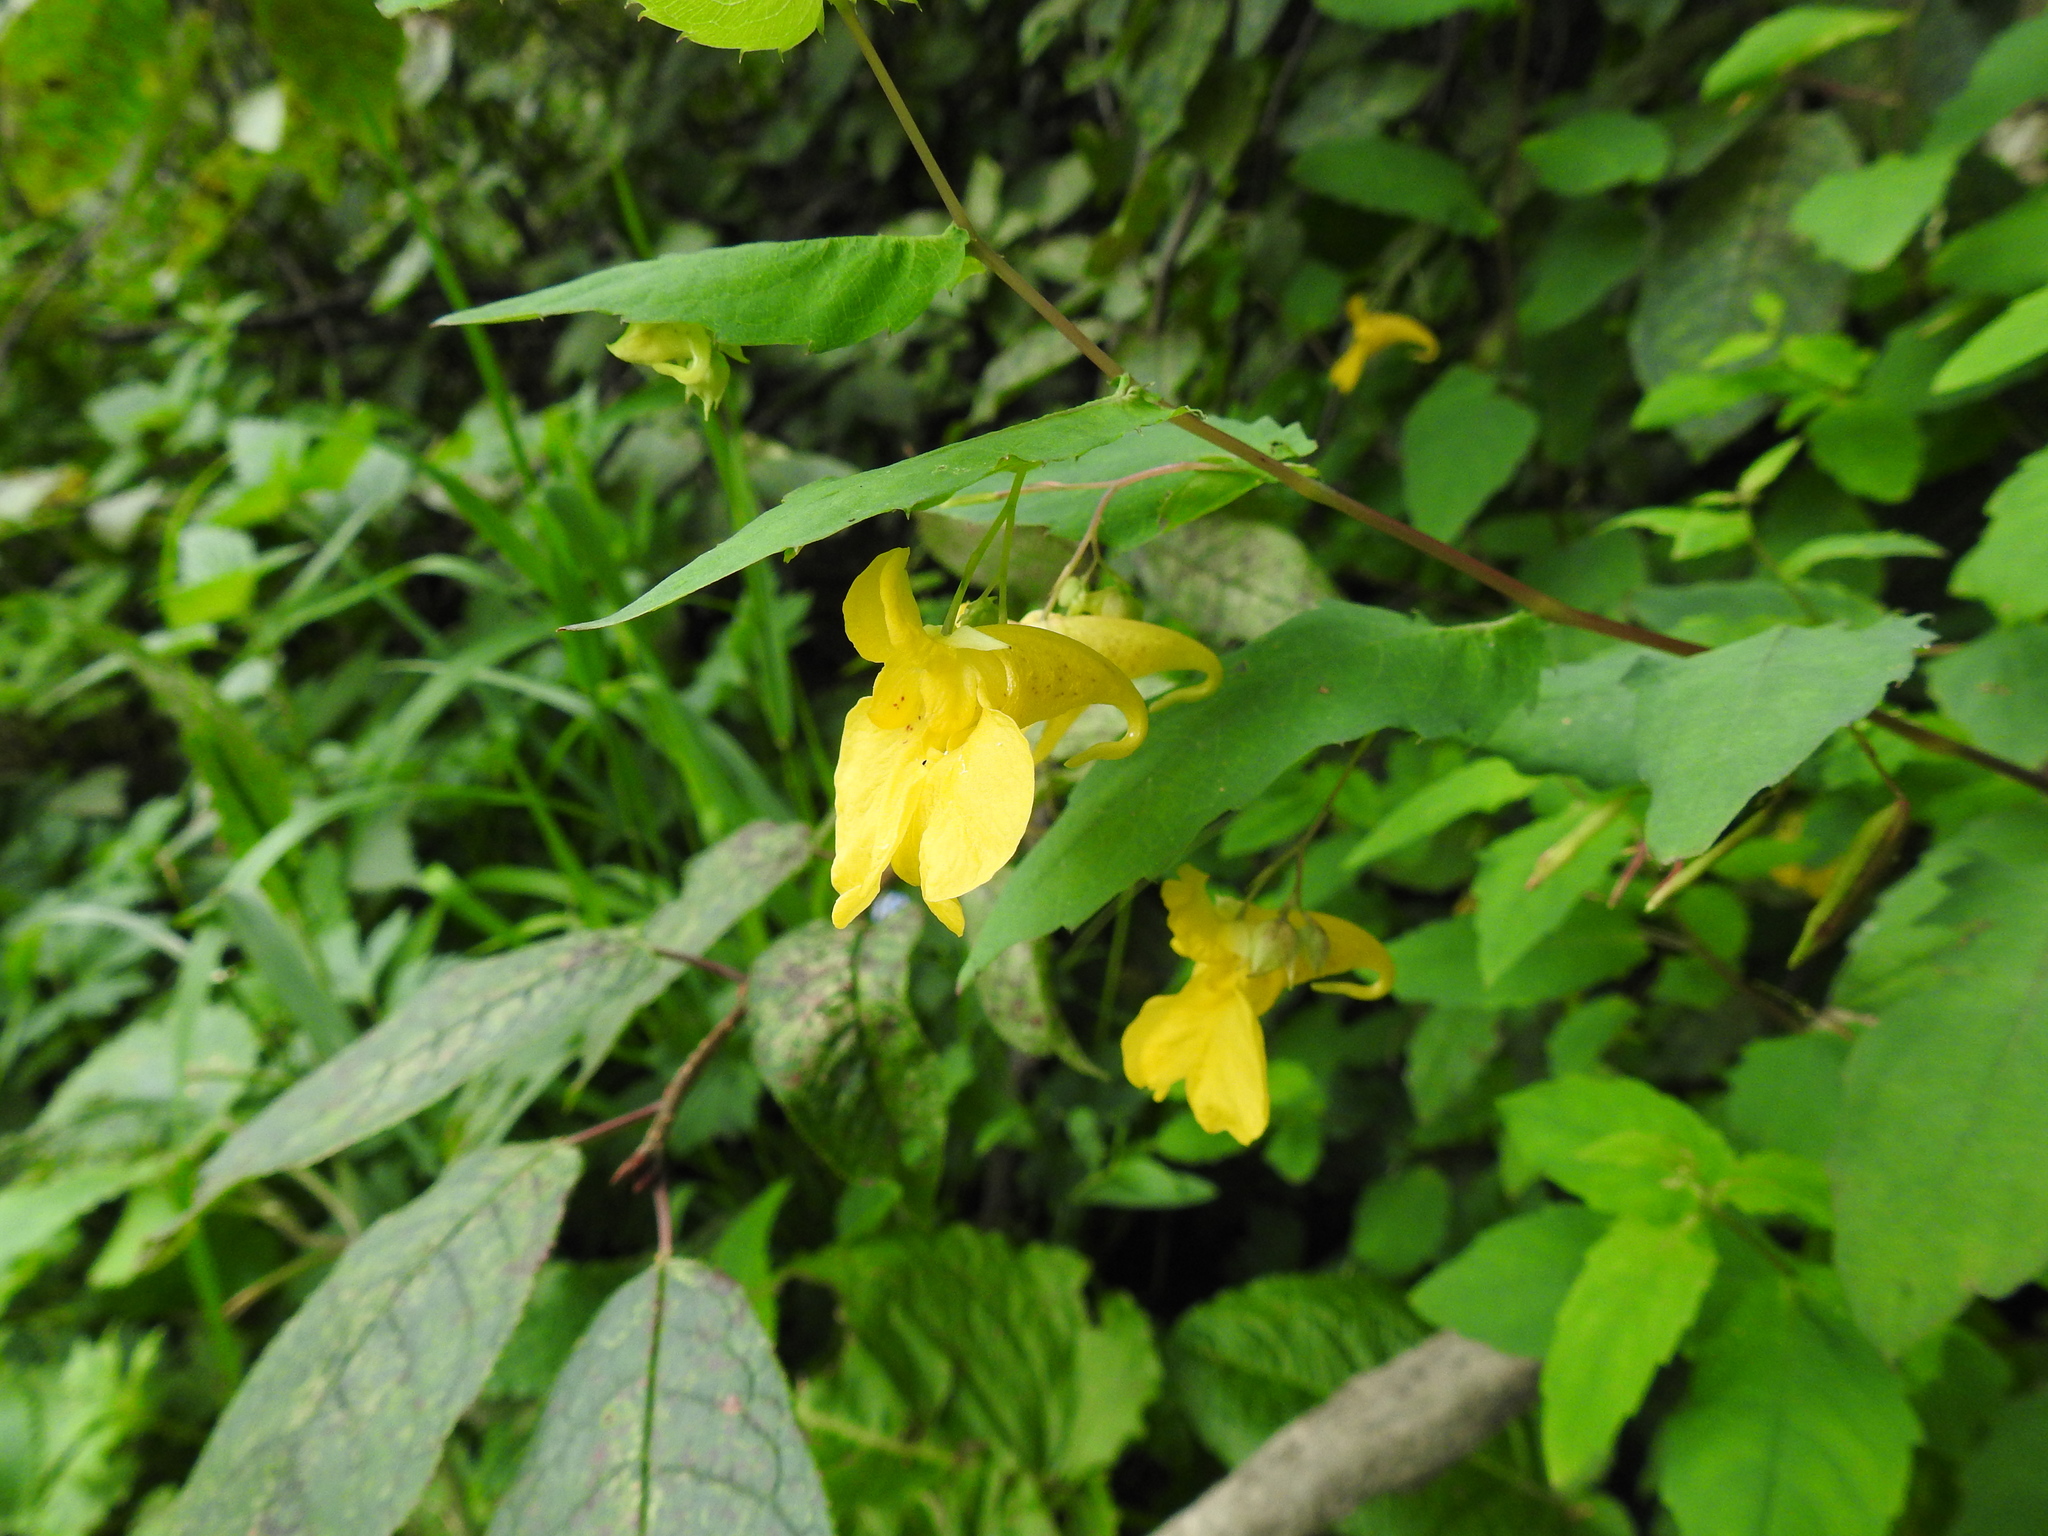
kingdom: Plantae
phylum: Tracheophyta
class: Magnoliopsida
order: Ericales
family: Balsaminaceae
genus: Impatiens
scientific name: Impatiens noli-tangere
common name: Touch-me-not balsam
